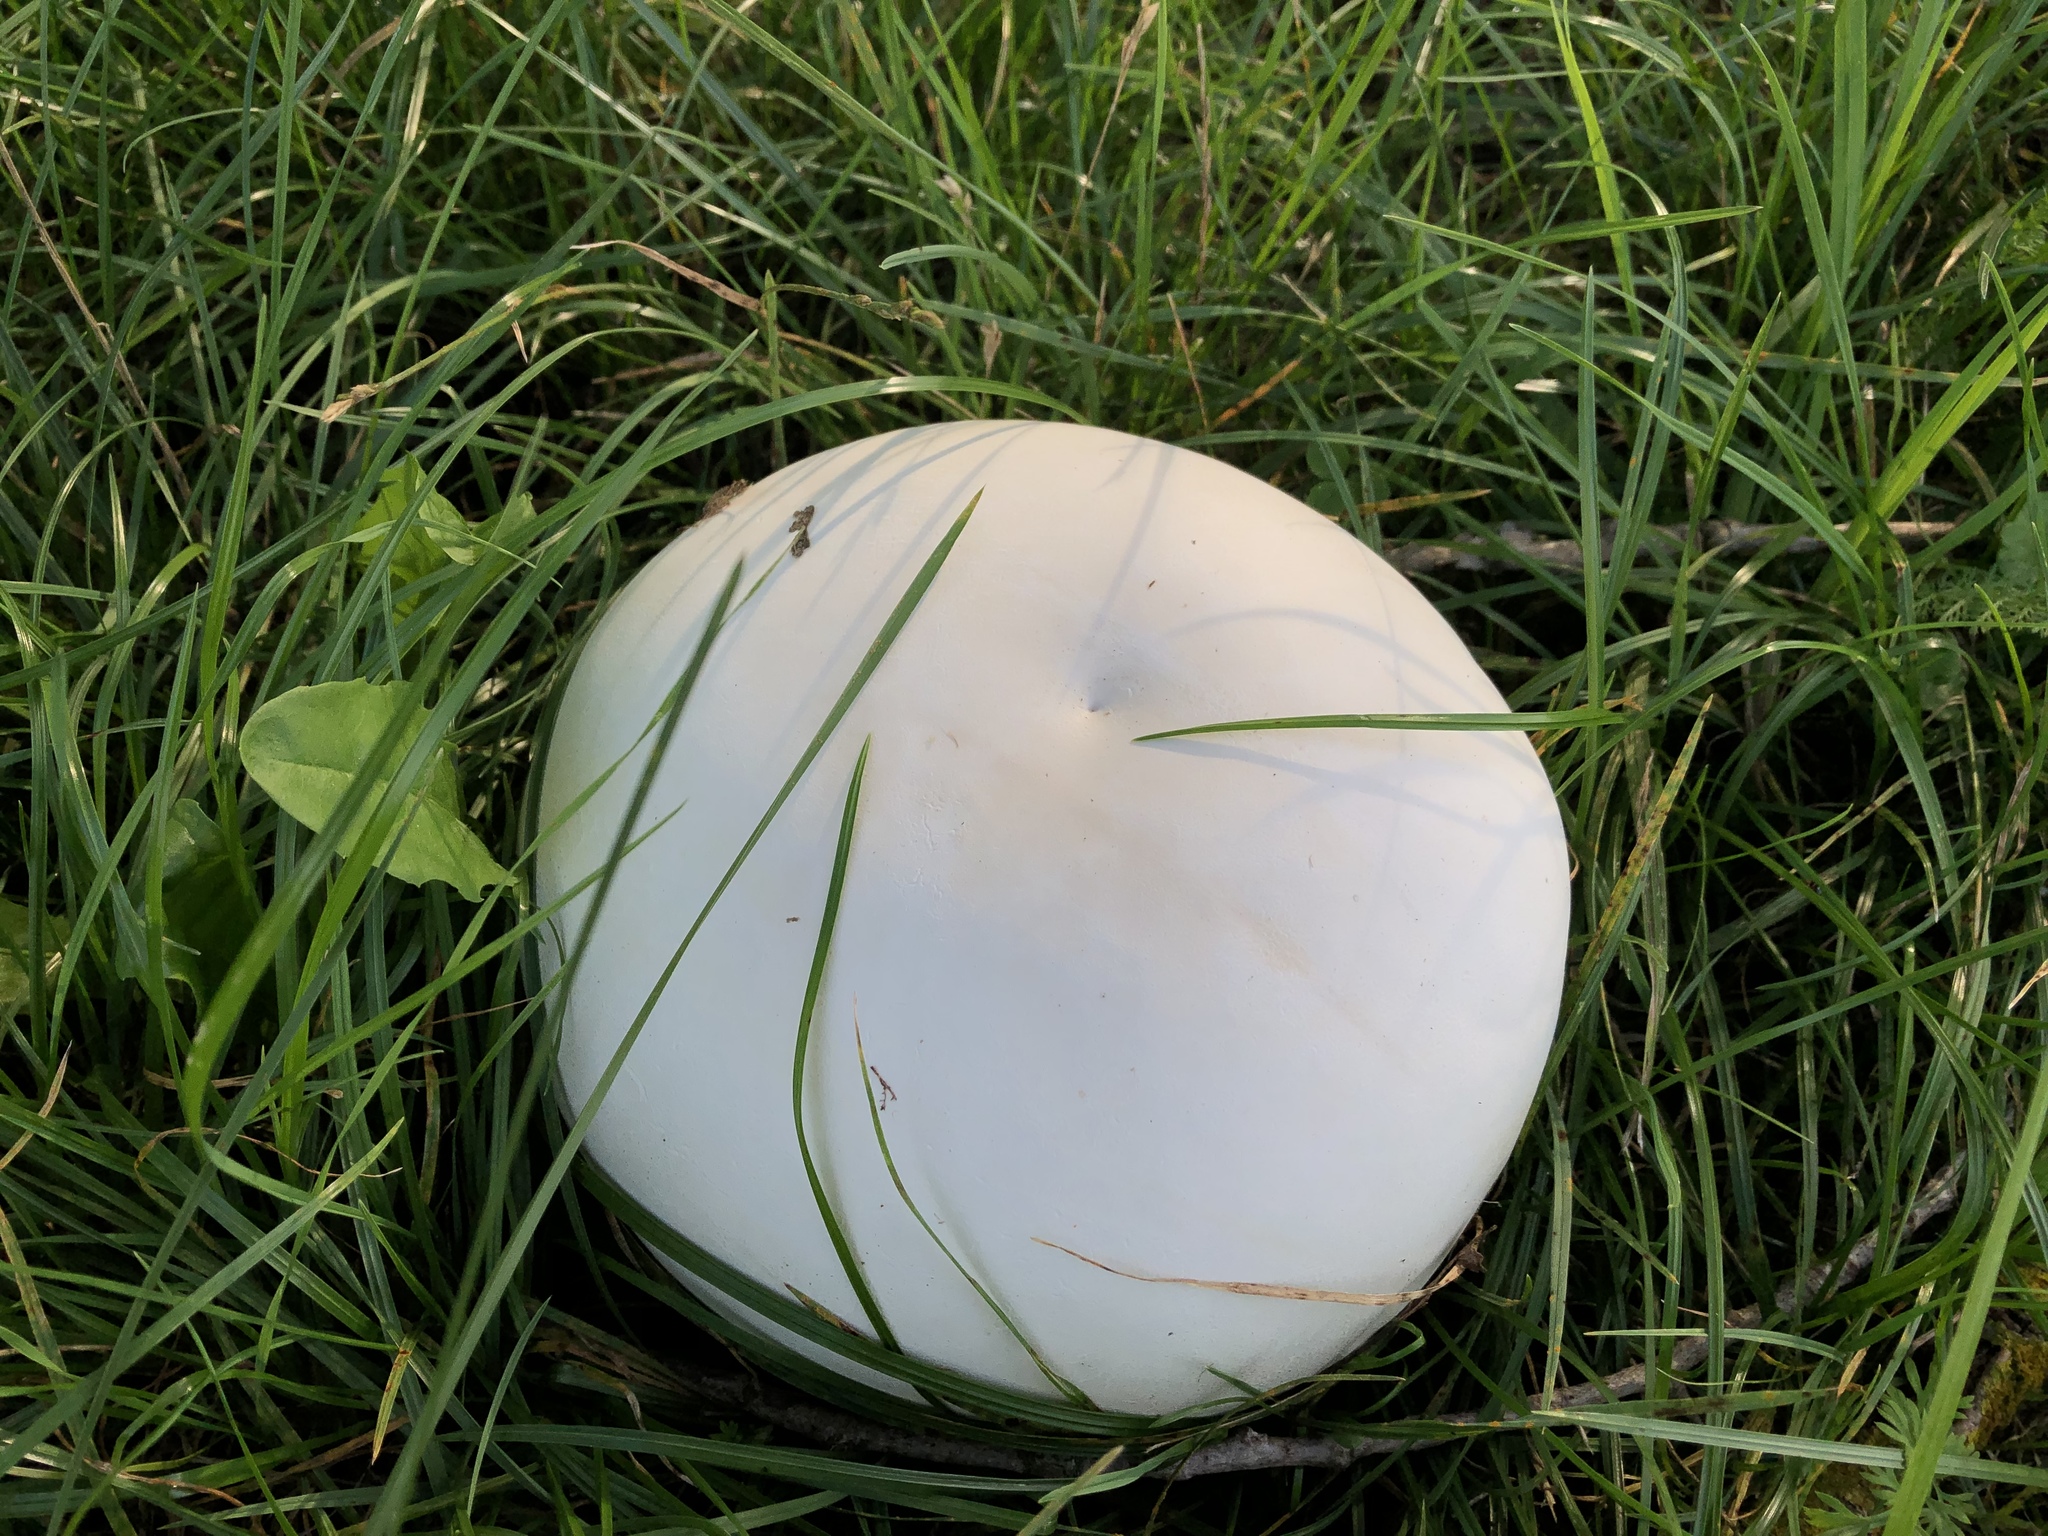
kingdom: Fungi
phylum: Basidiomycota
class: Agaricomycetes
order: Agaricales
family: Lycoperdaceae
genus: Calvatia
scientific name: Calvatia gigantea
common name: Giant puffball
